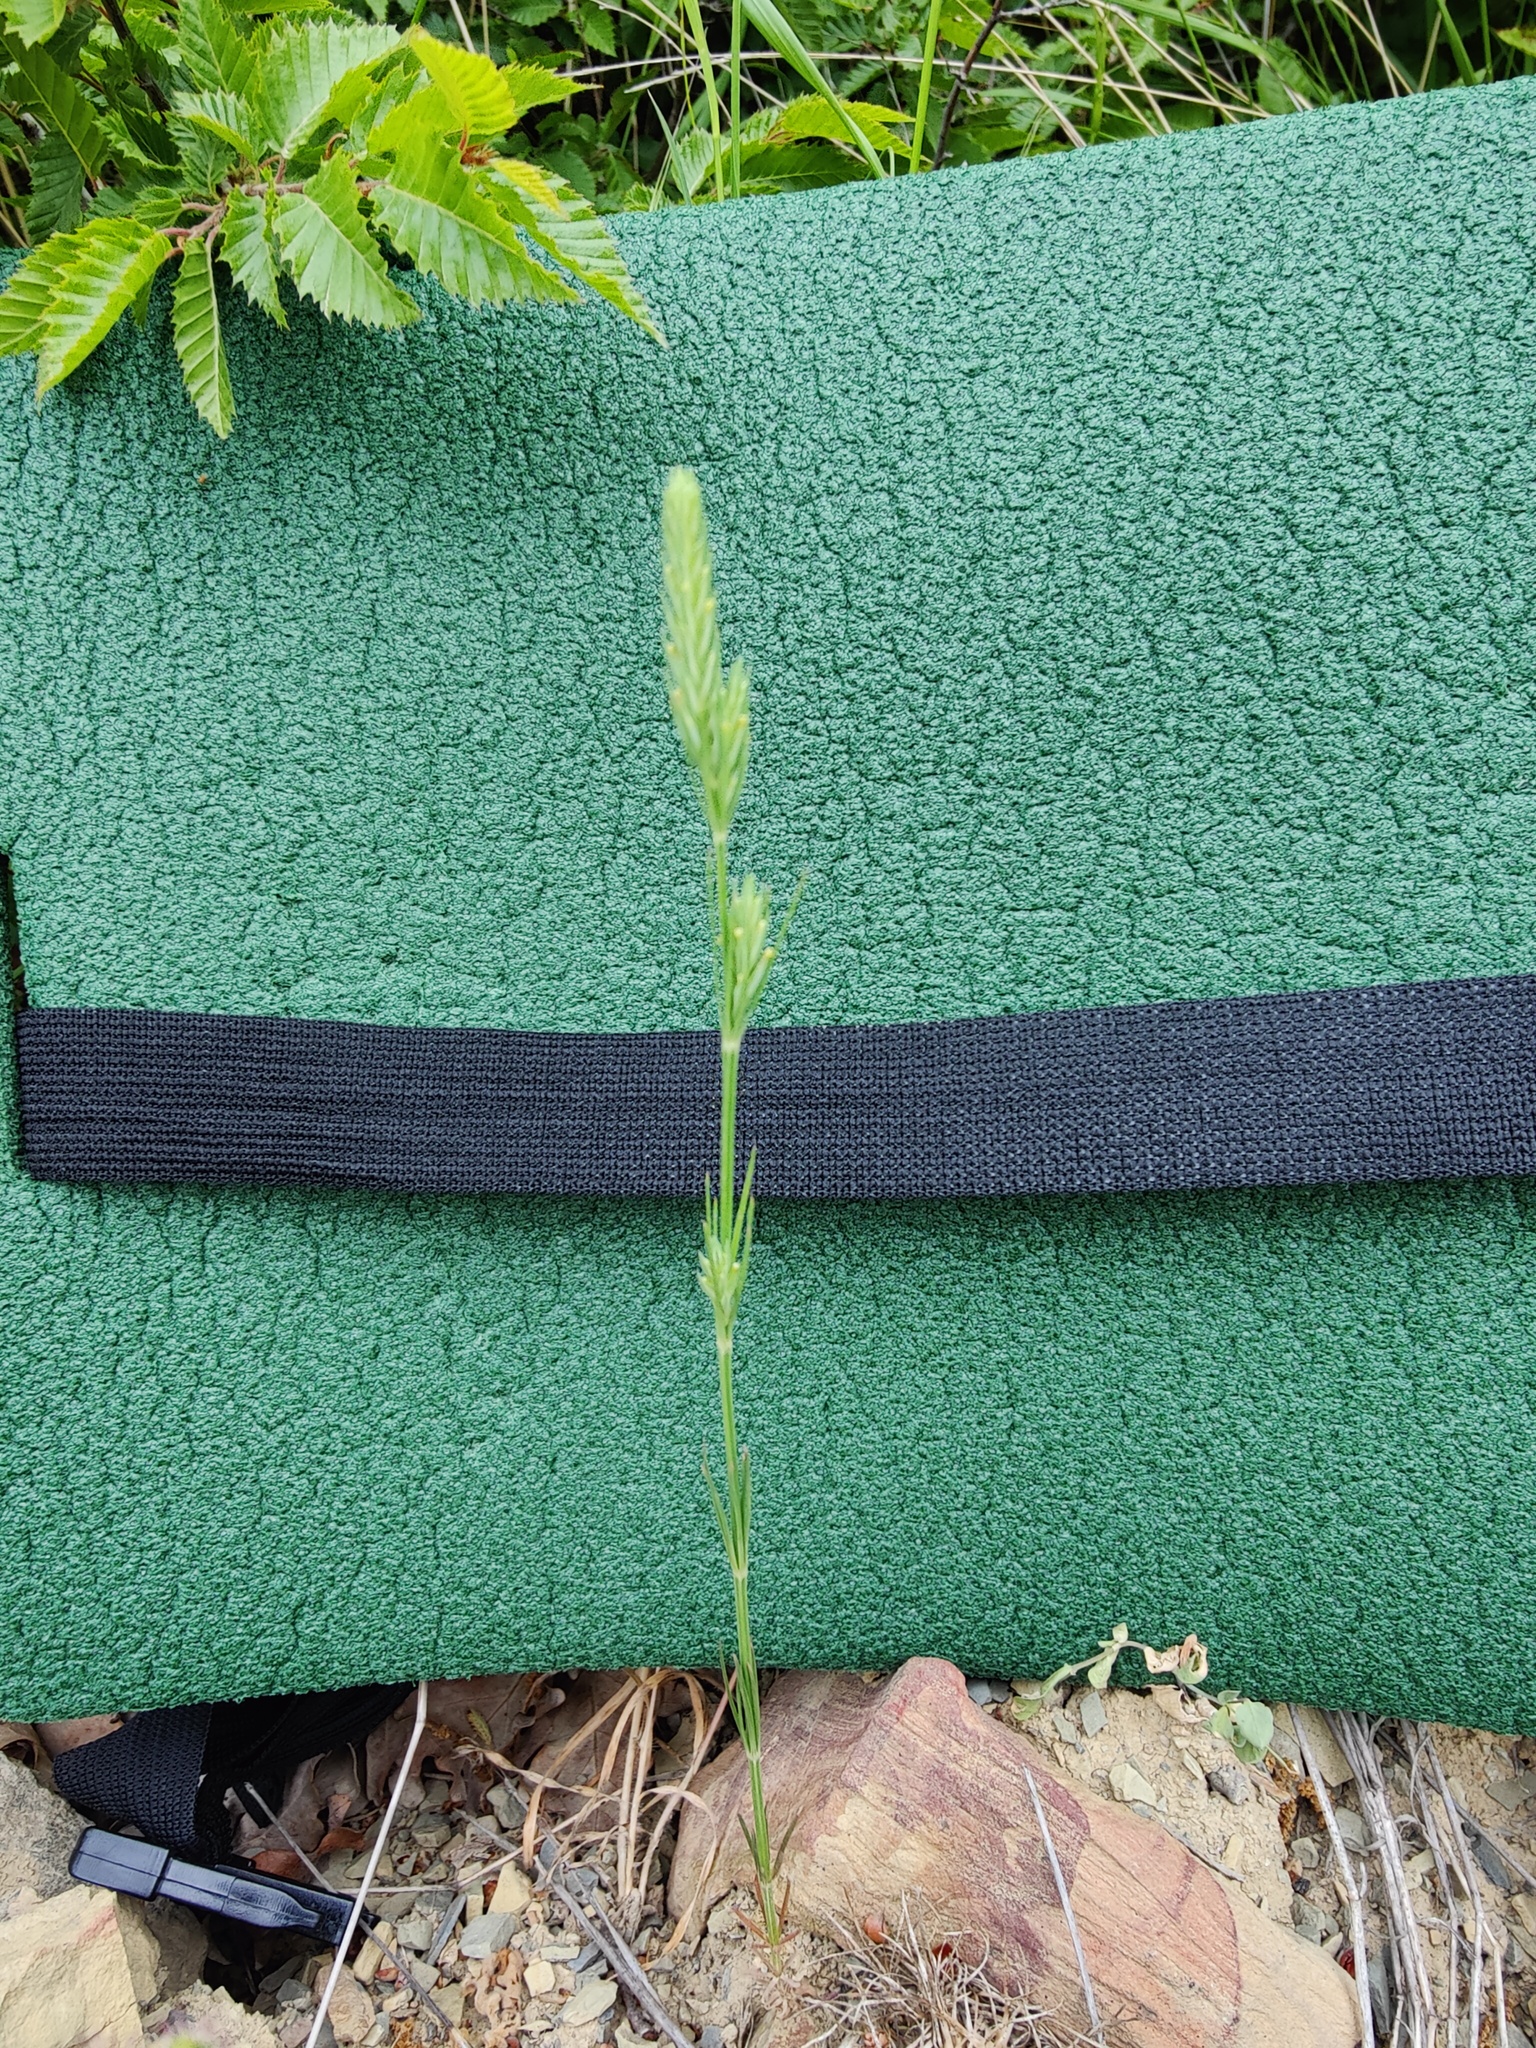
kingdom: Plantae
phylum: Tracheophyta
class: Magnoliopsida
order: Gentianales
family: Rubiaceae
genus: Crucianella
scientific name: Crucianella angustifolia
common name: Narrowleaf crucianella
